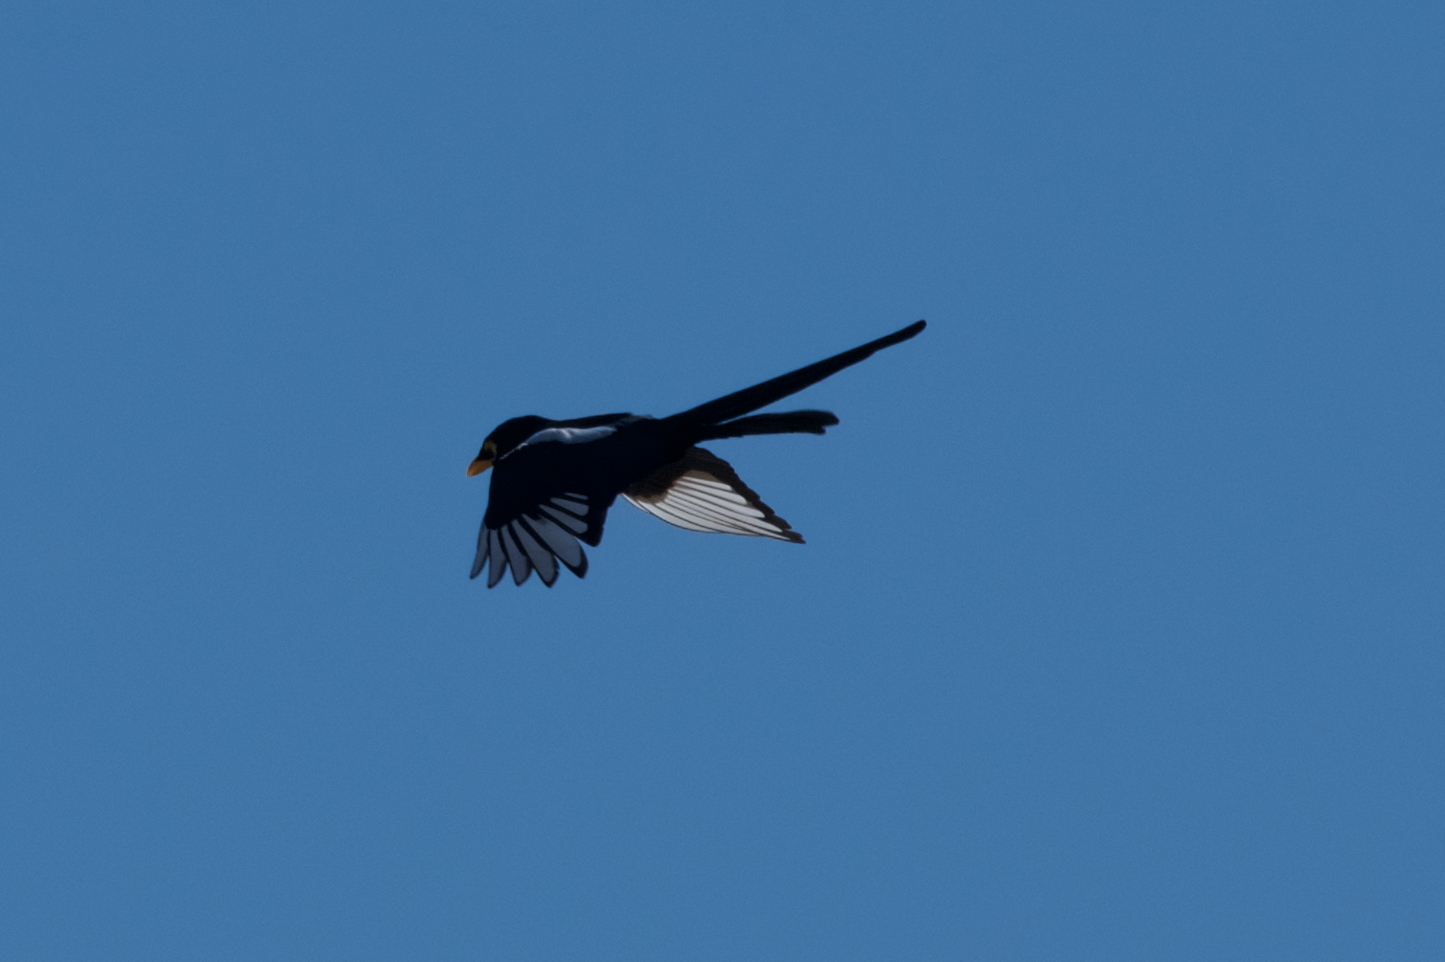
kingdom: Animalia
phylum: Chordata
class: Aves
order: Passeriformes
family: Corvidae
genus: Pica
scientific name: Pica nuttalli
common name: Yellow-billed magpie
